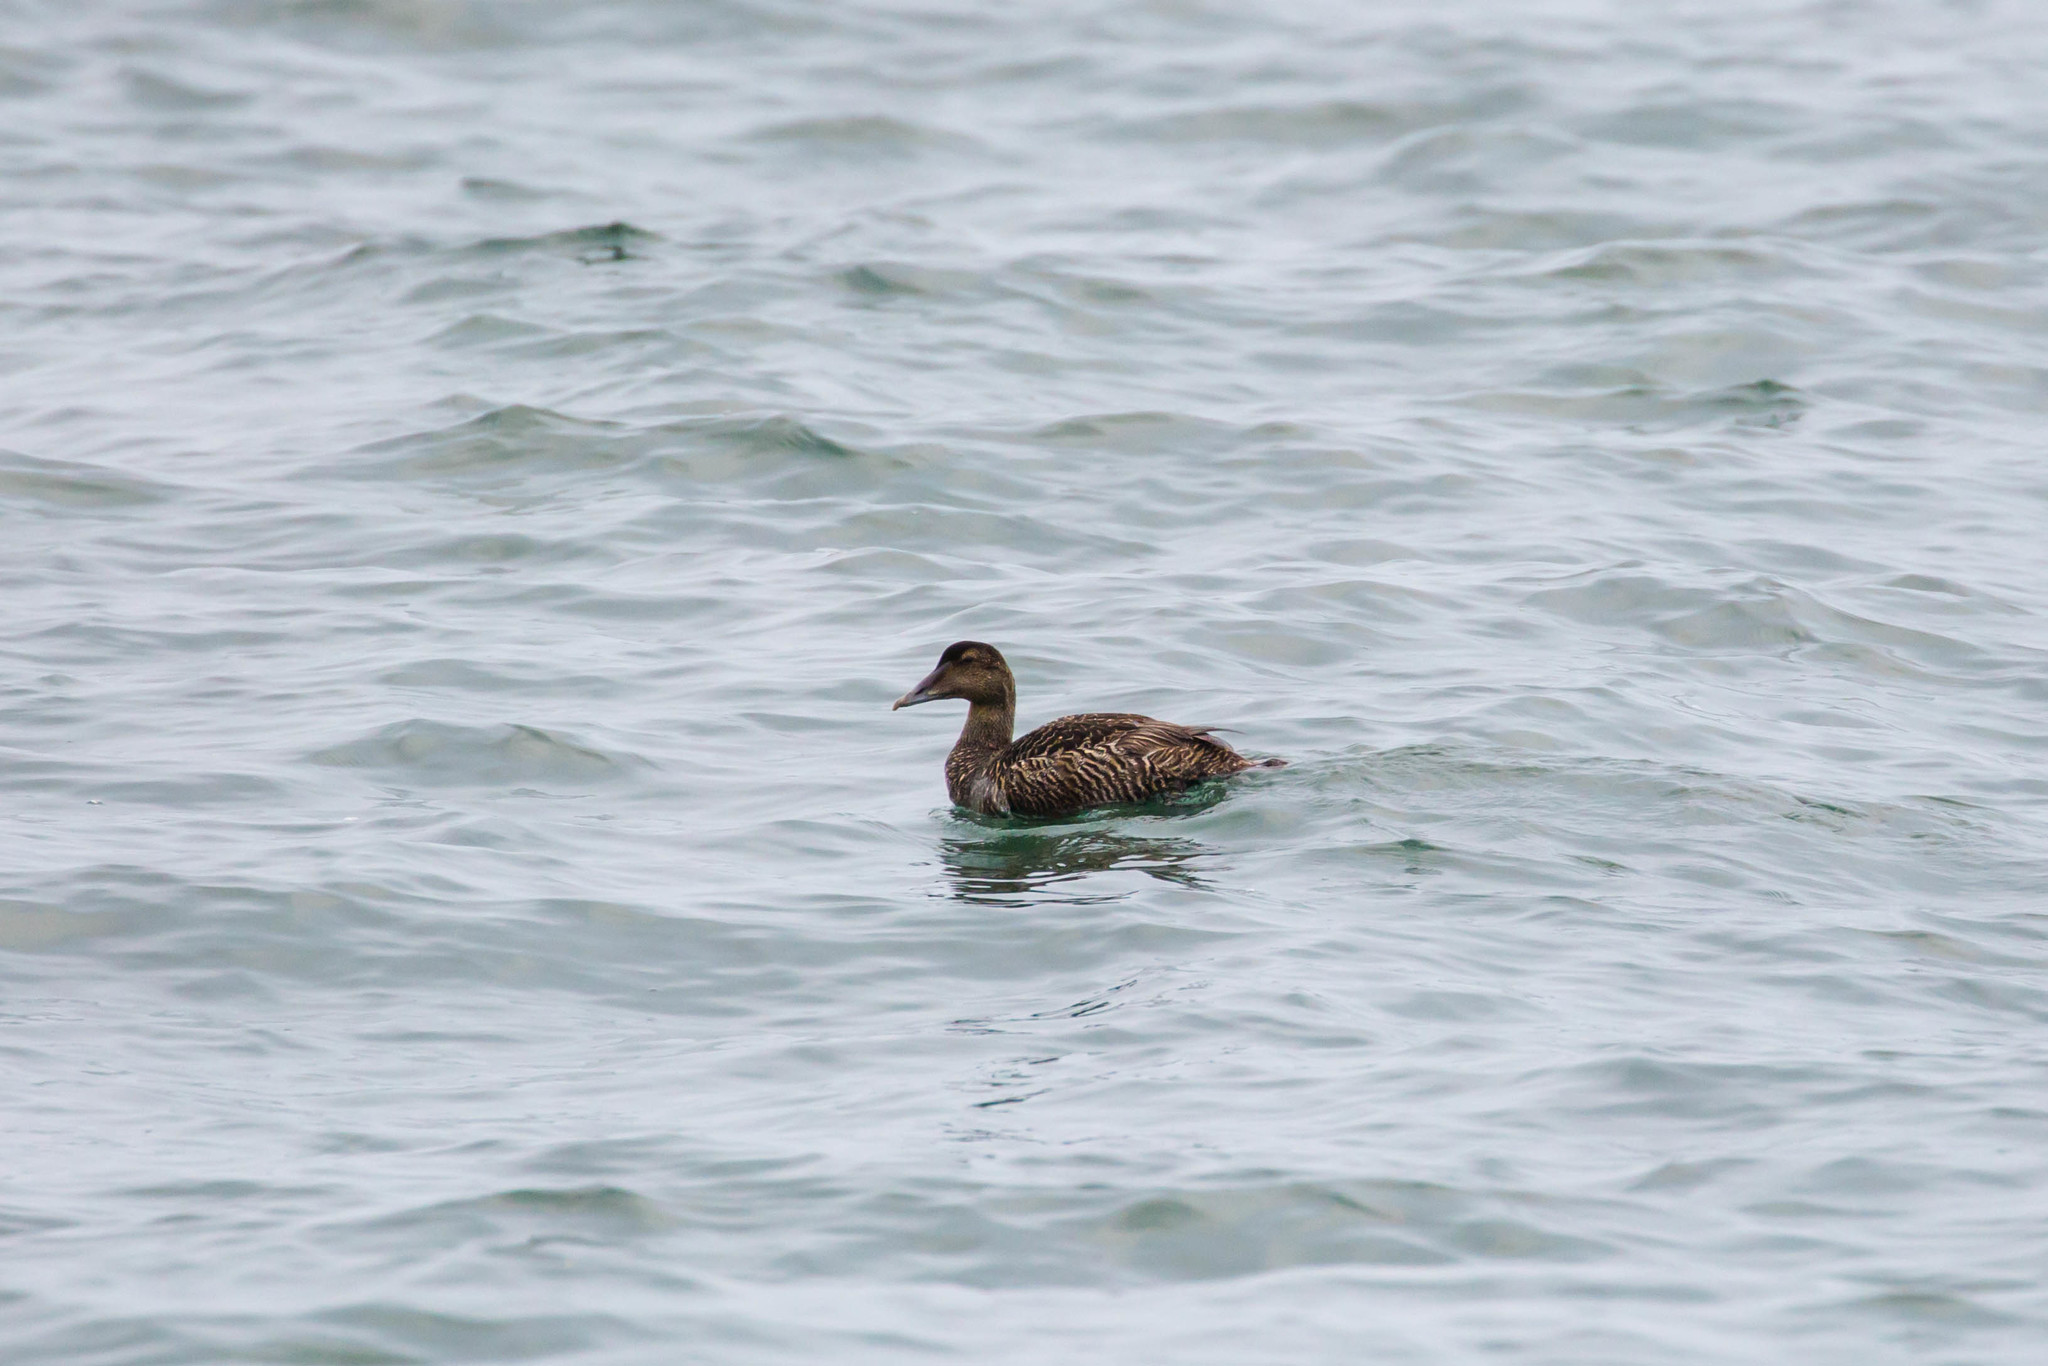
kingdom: Animalia
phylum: Chordata
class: Aves
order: Anseriformes
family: Anatidae
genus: Somateria
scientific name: Somateria mollissima
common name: Common eider
